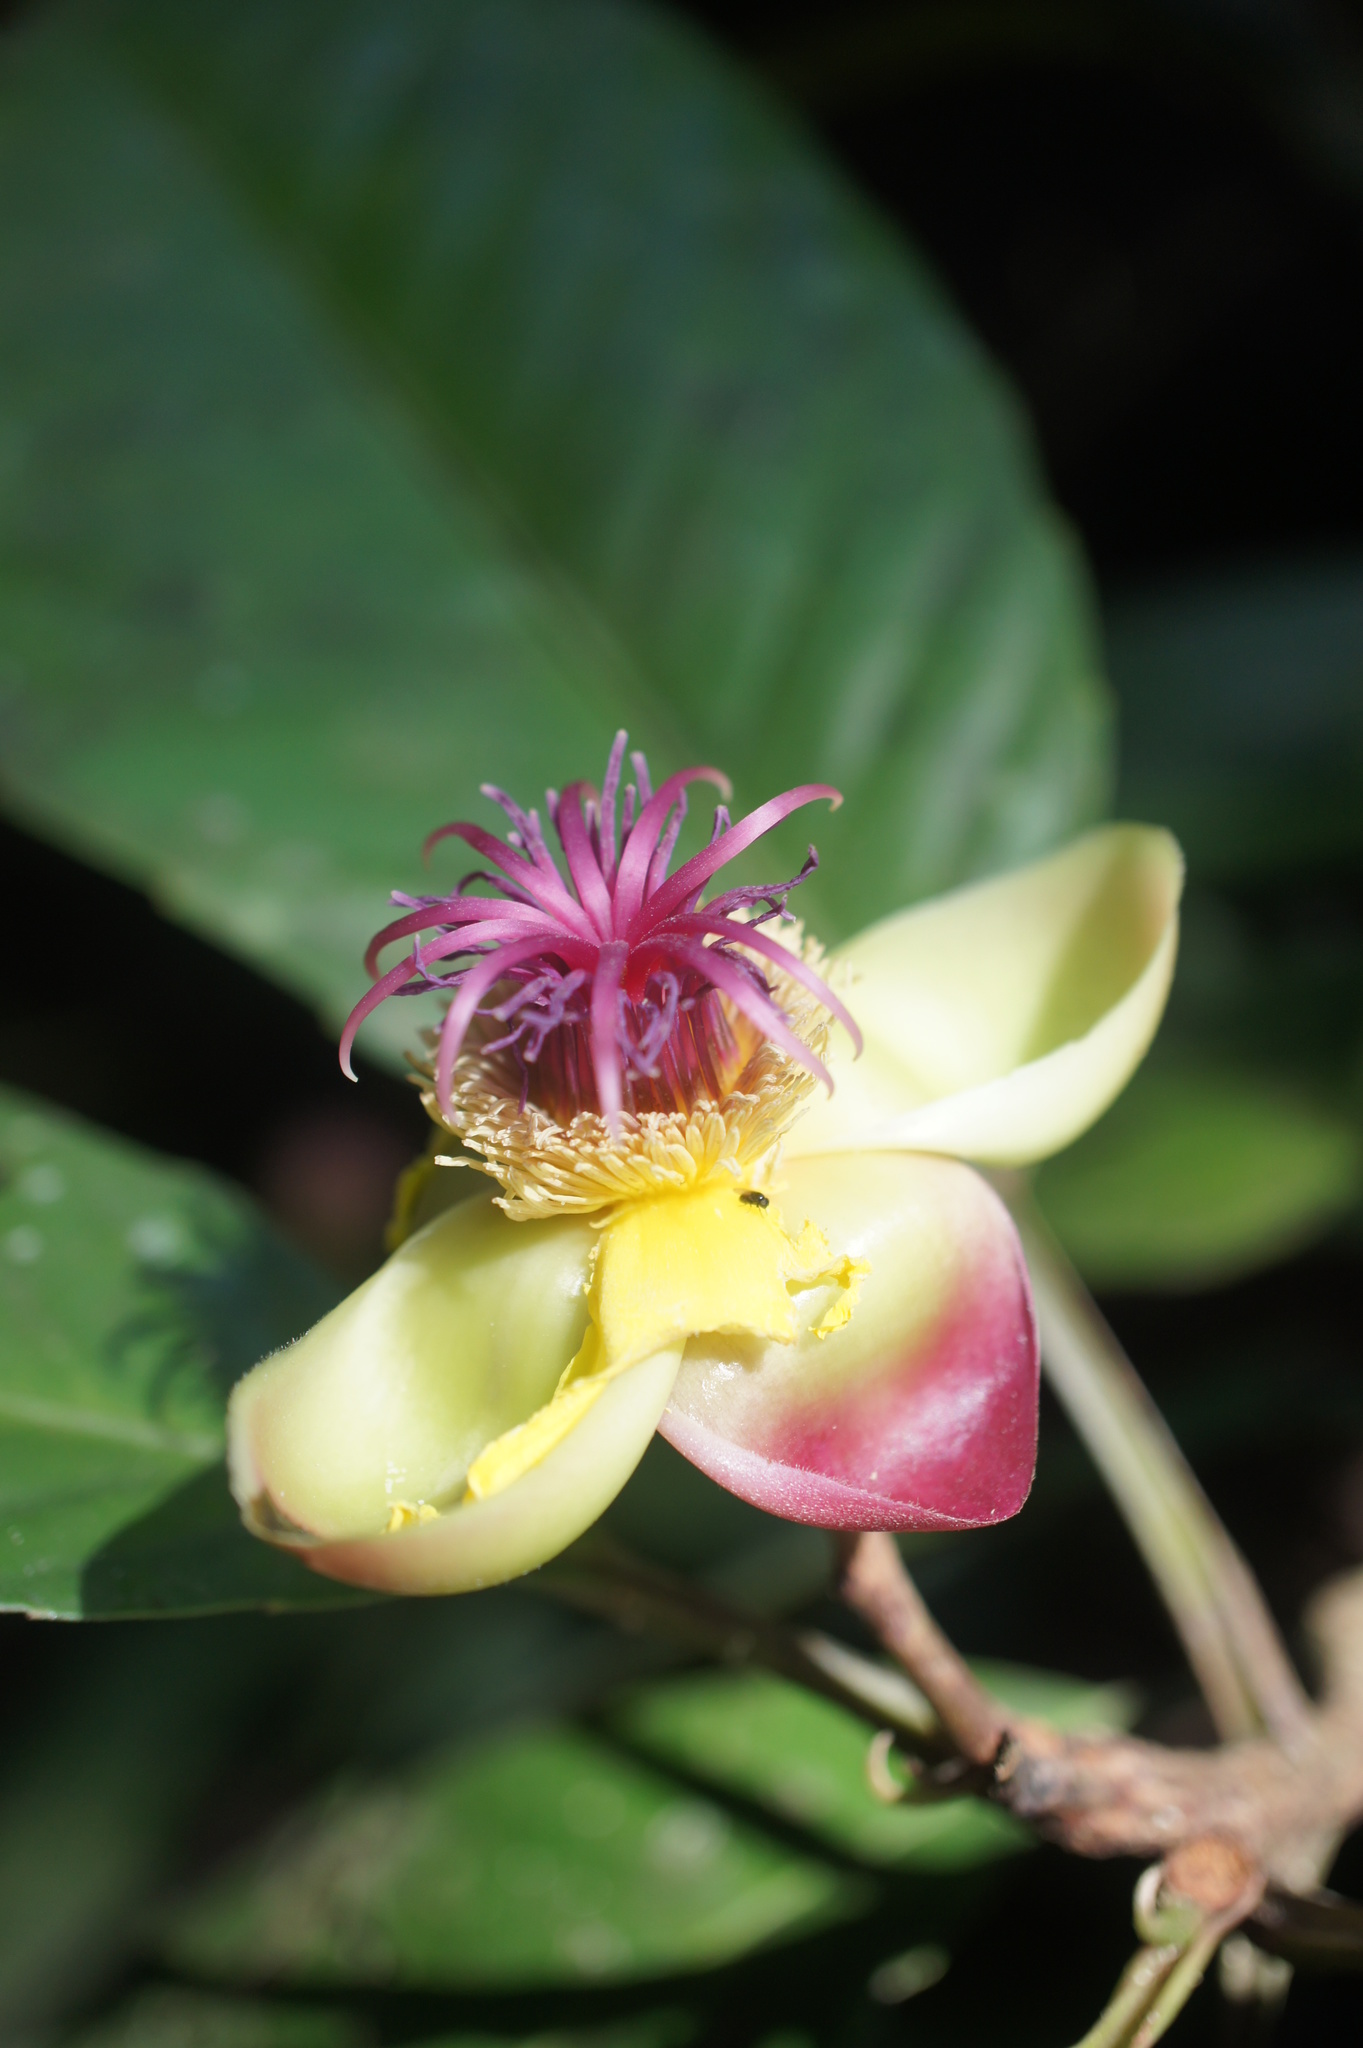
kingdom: Plantae
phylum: Tracheophyta
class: Magnoliopsida
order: Dilleniales
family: Dilleniaceae
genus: Dillenia
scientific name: Dillenia excelsa
